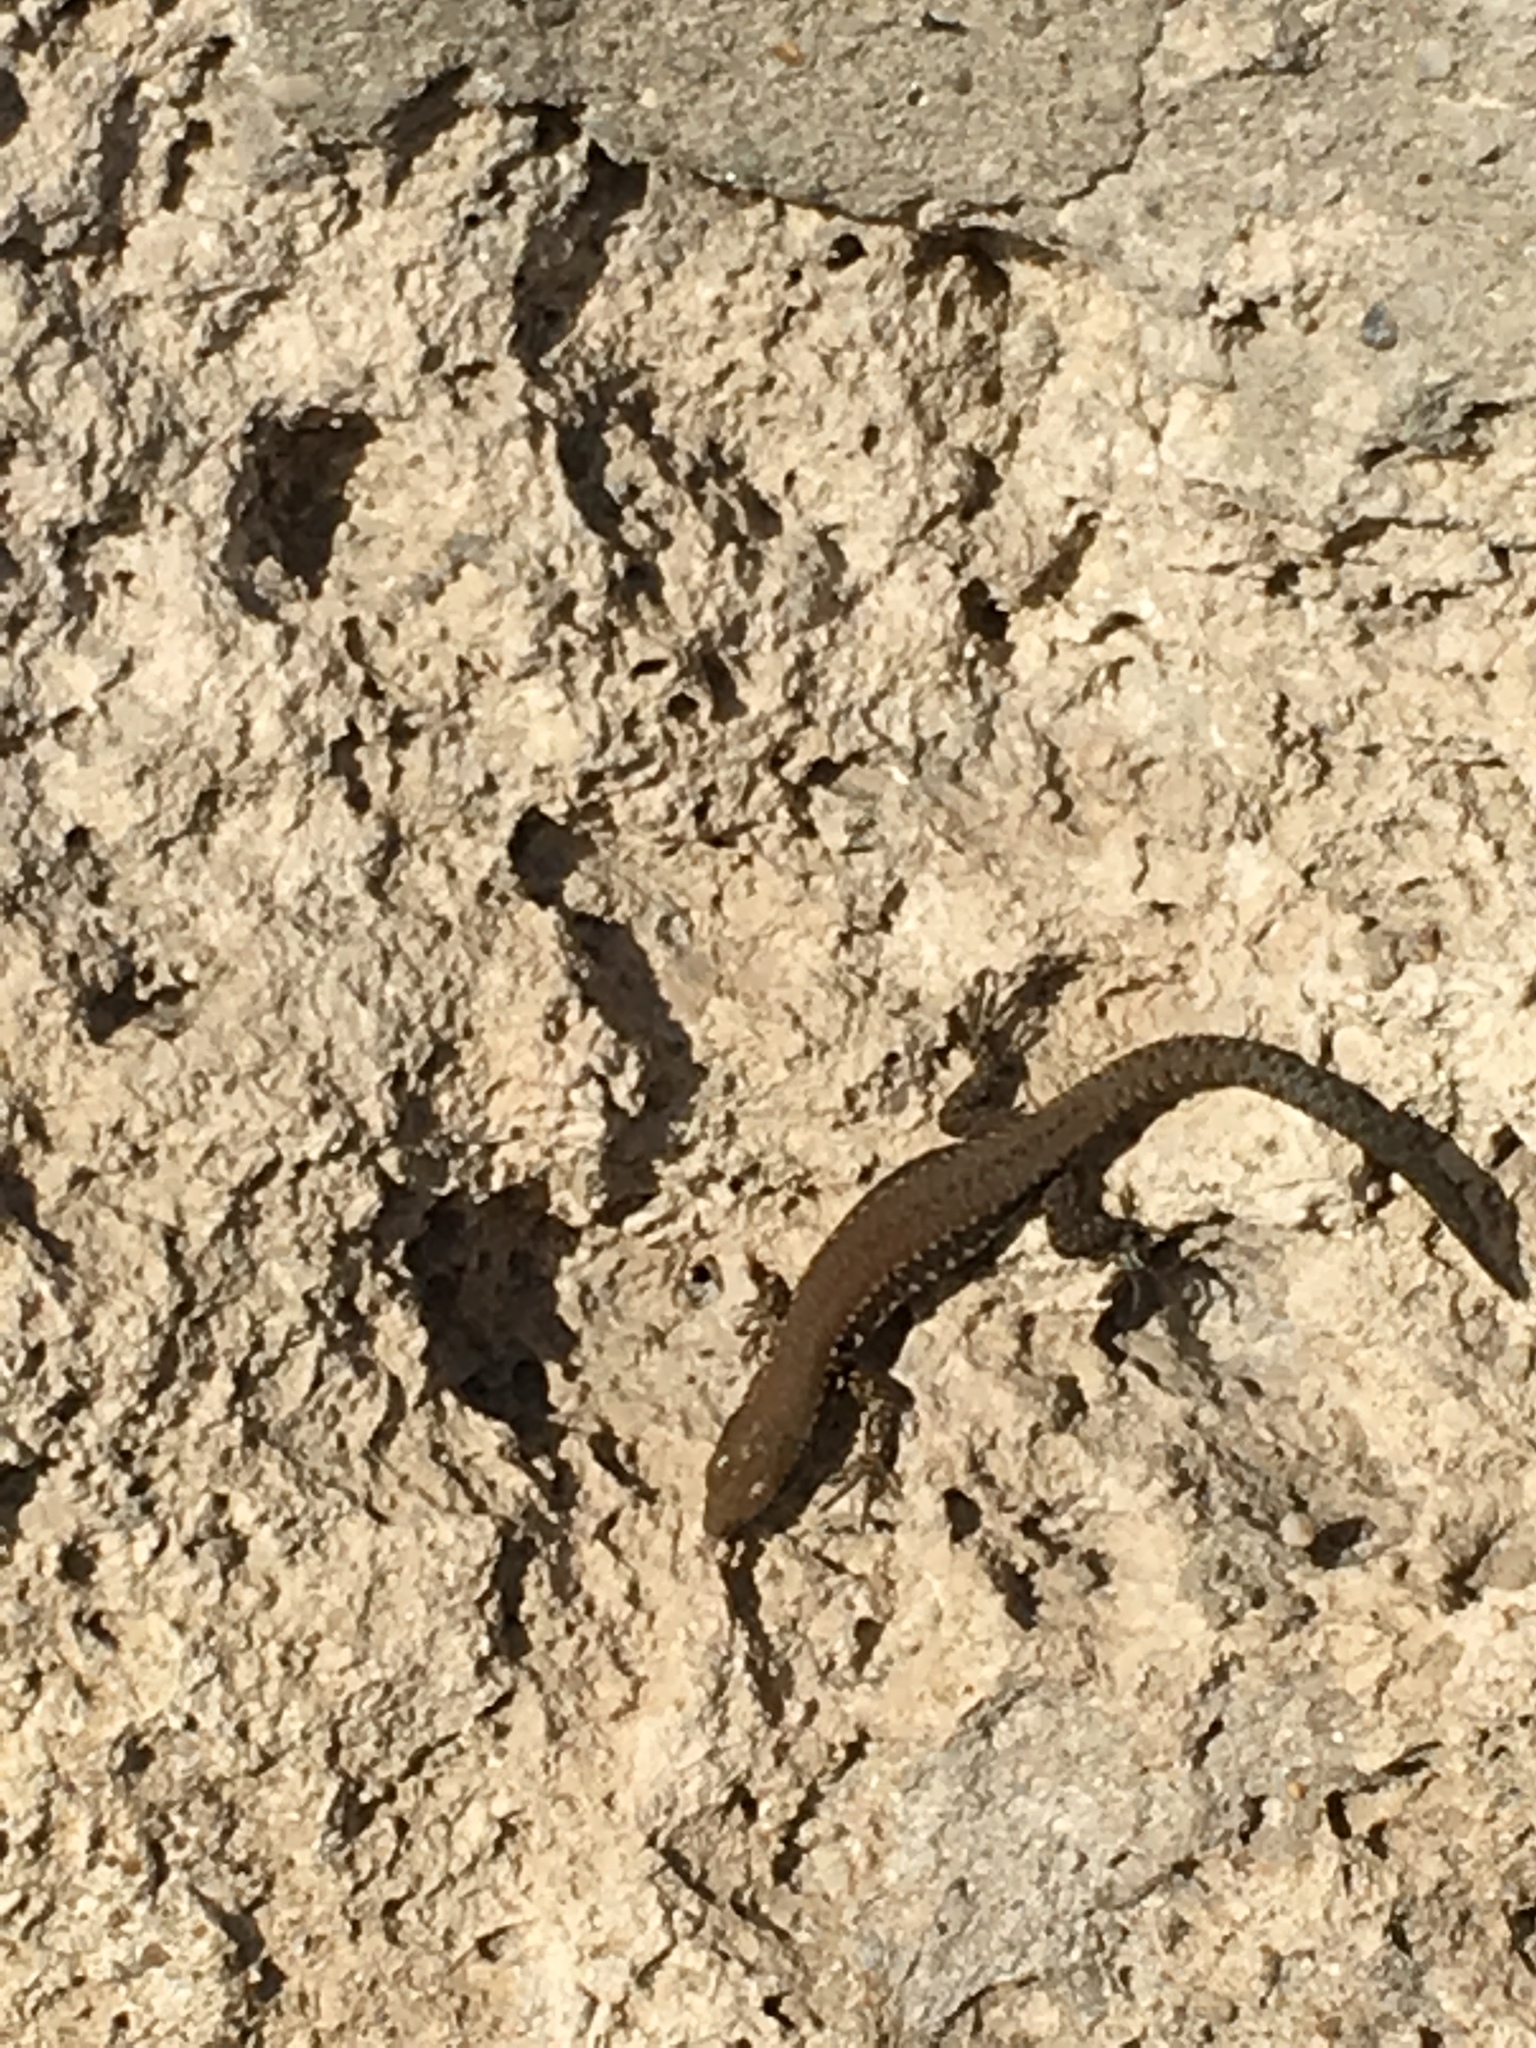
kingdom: Animalia
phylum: Chordata
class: Squamata
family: Lacertidae
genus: Podarcis
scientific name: Podarcis muralis
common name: Common wall lizard
